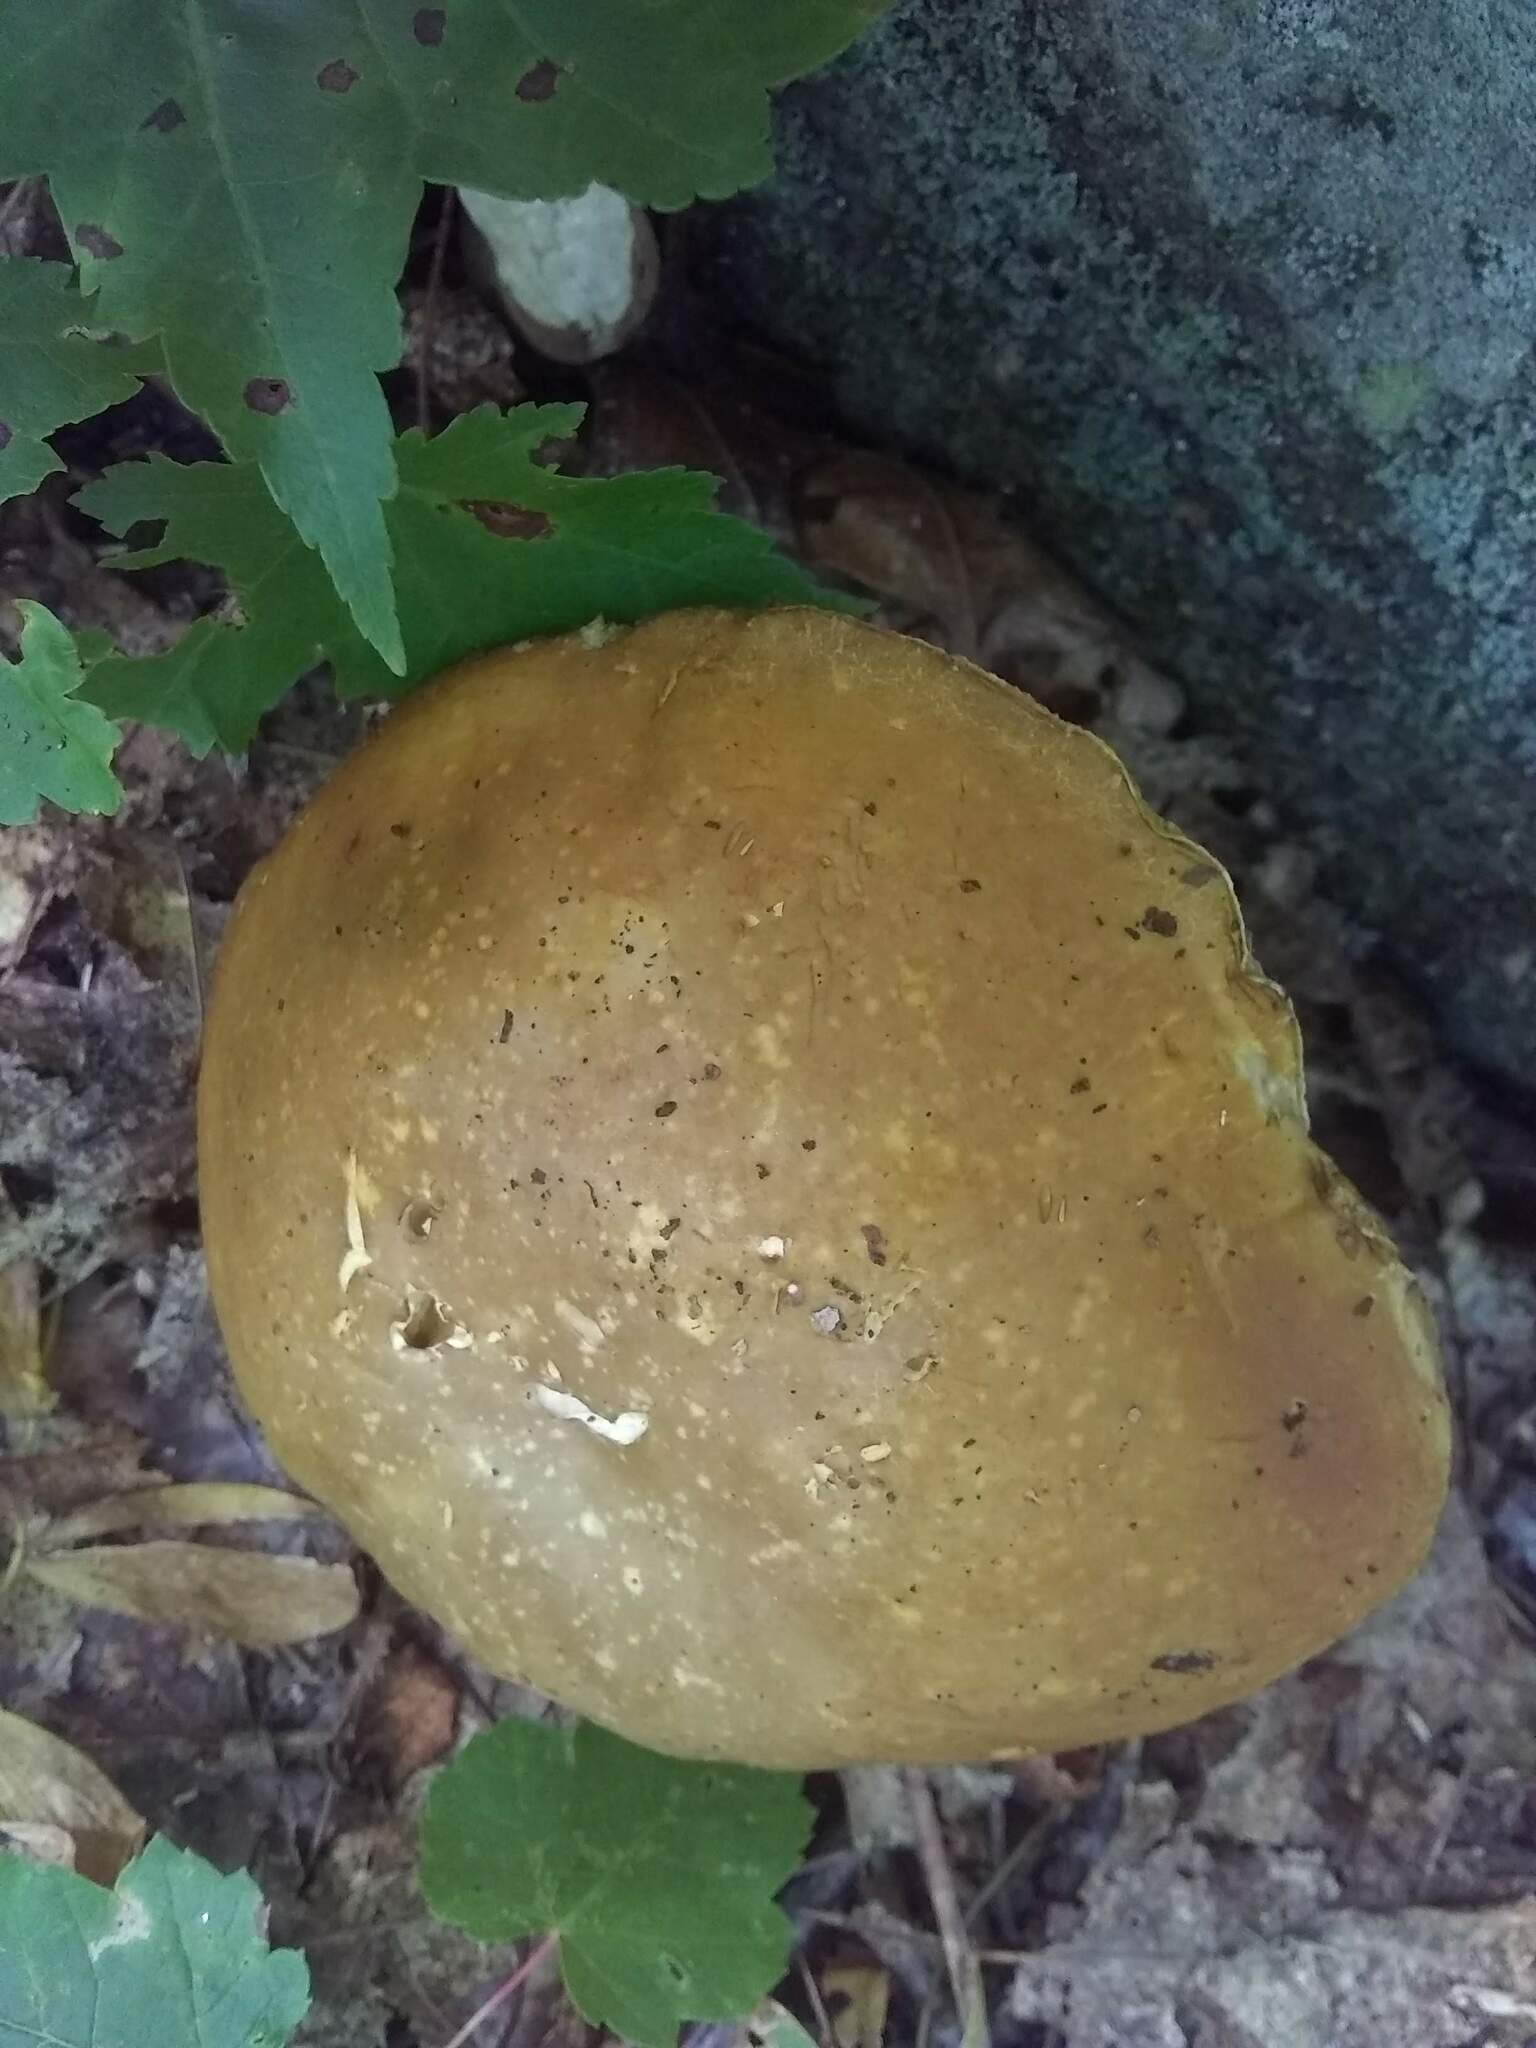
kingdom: Fungi
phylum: Basidiomycota
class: Agaricomycetes
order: Boletales
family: Boletaceae
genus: Xanthoconium
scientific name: Xanthoconium affine
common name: Spotted bolete
